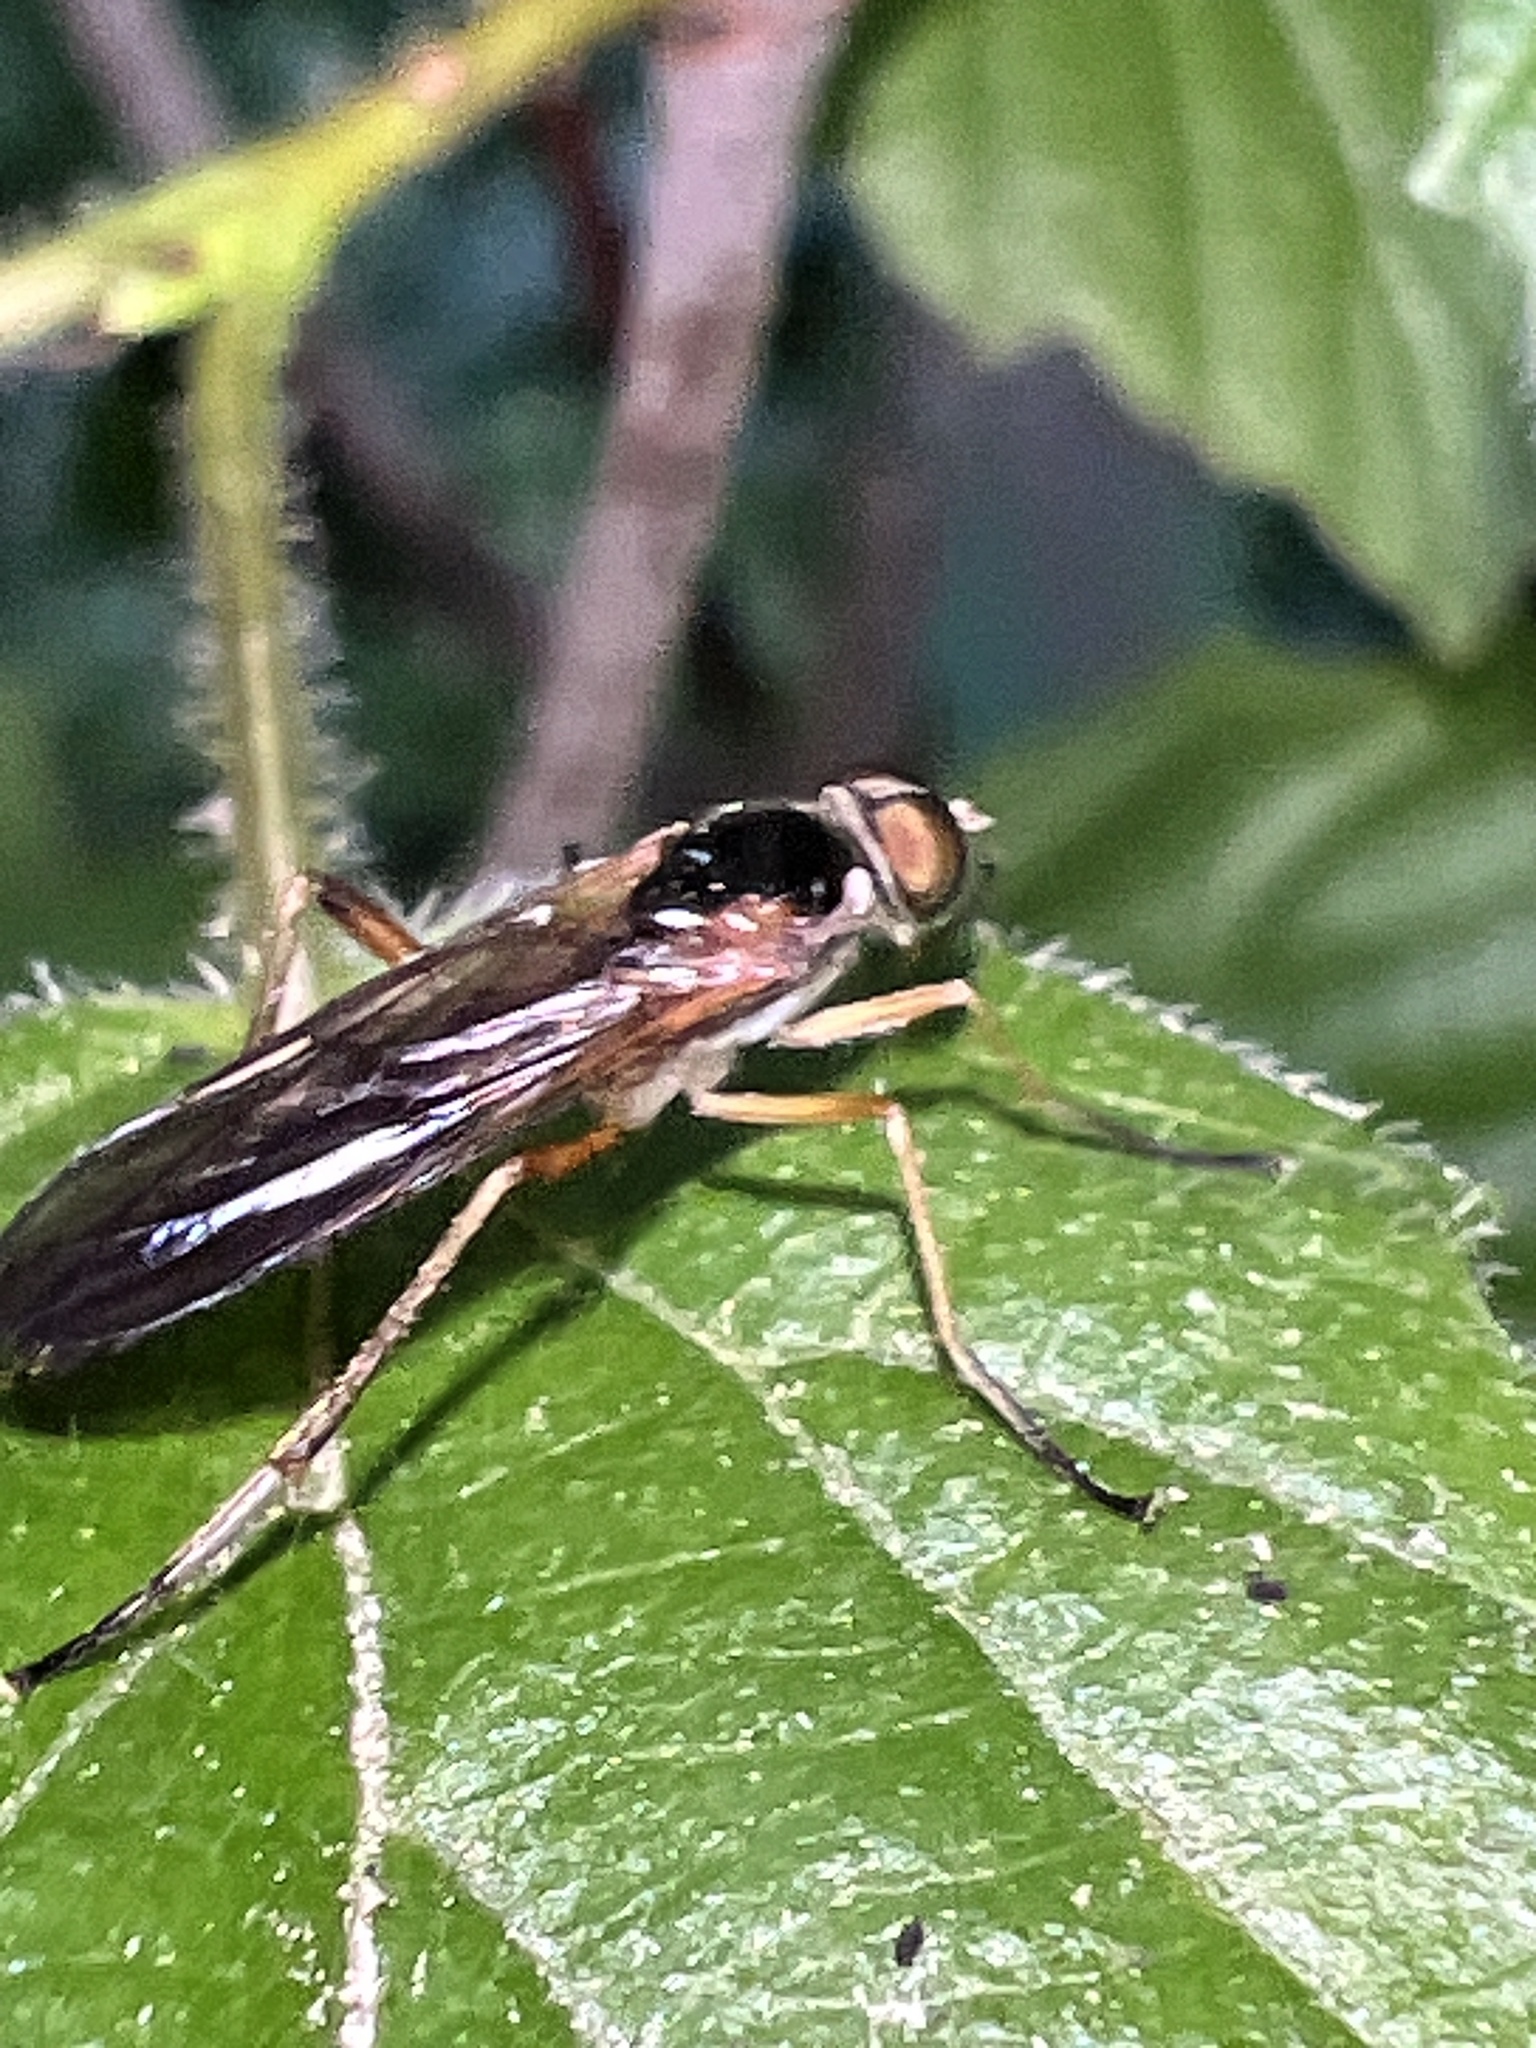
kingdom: Animalia
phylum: Arthropoda
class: Insecta
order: Diptera
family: Xylophagidae
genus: Dialysis
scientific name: Dialysis elongata
